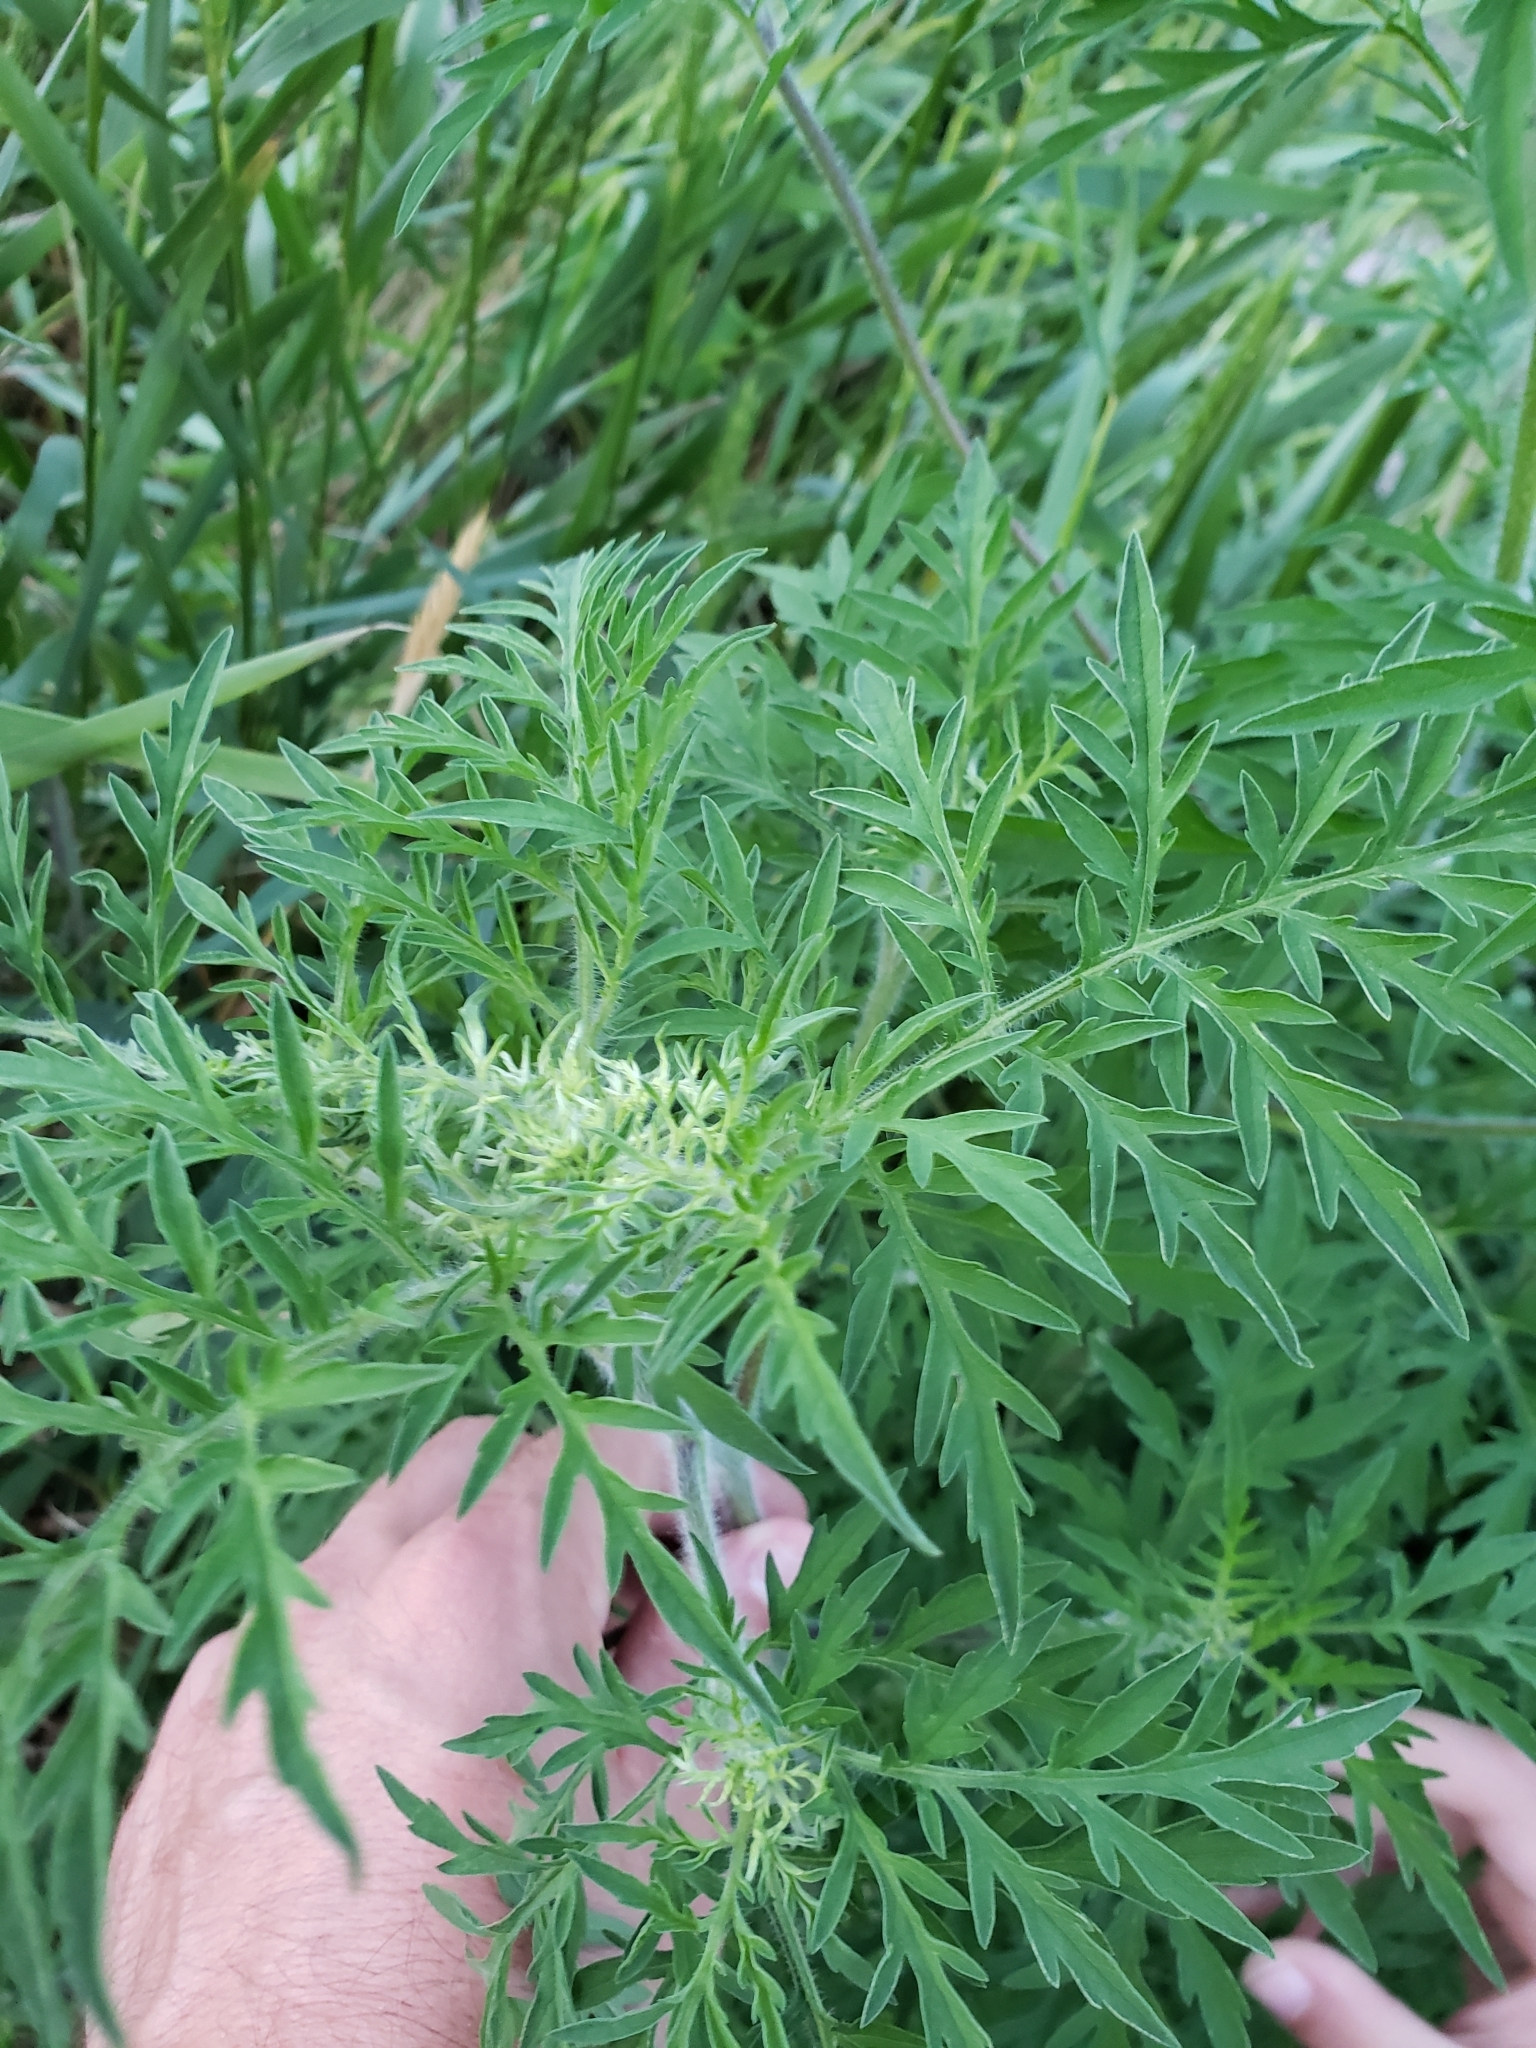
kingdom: Plantae
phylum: Tracheophyta
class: Magnoliopsida
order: Asterales
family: Asteraceae
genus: Ambrosia
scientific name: Ambrosia artemisiifolia
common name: Annual ragweed
